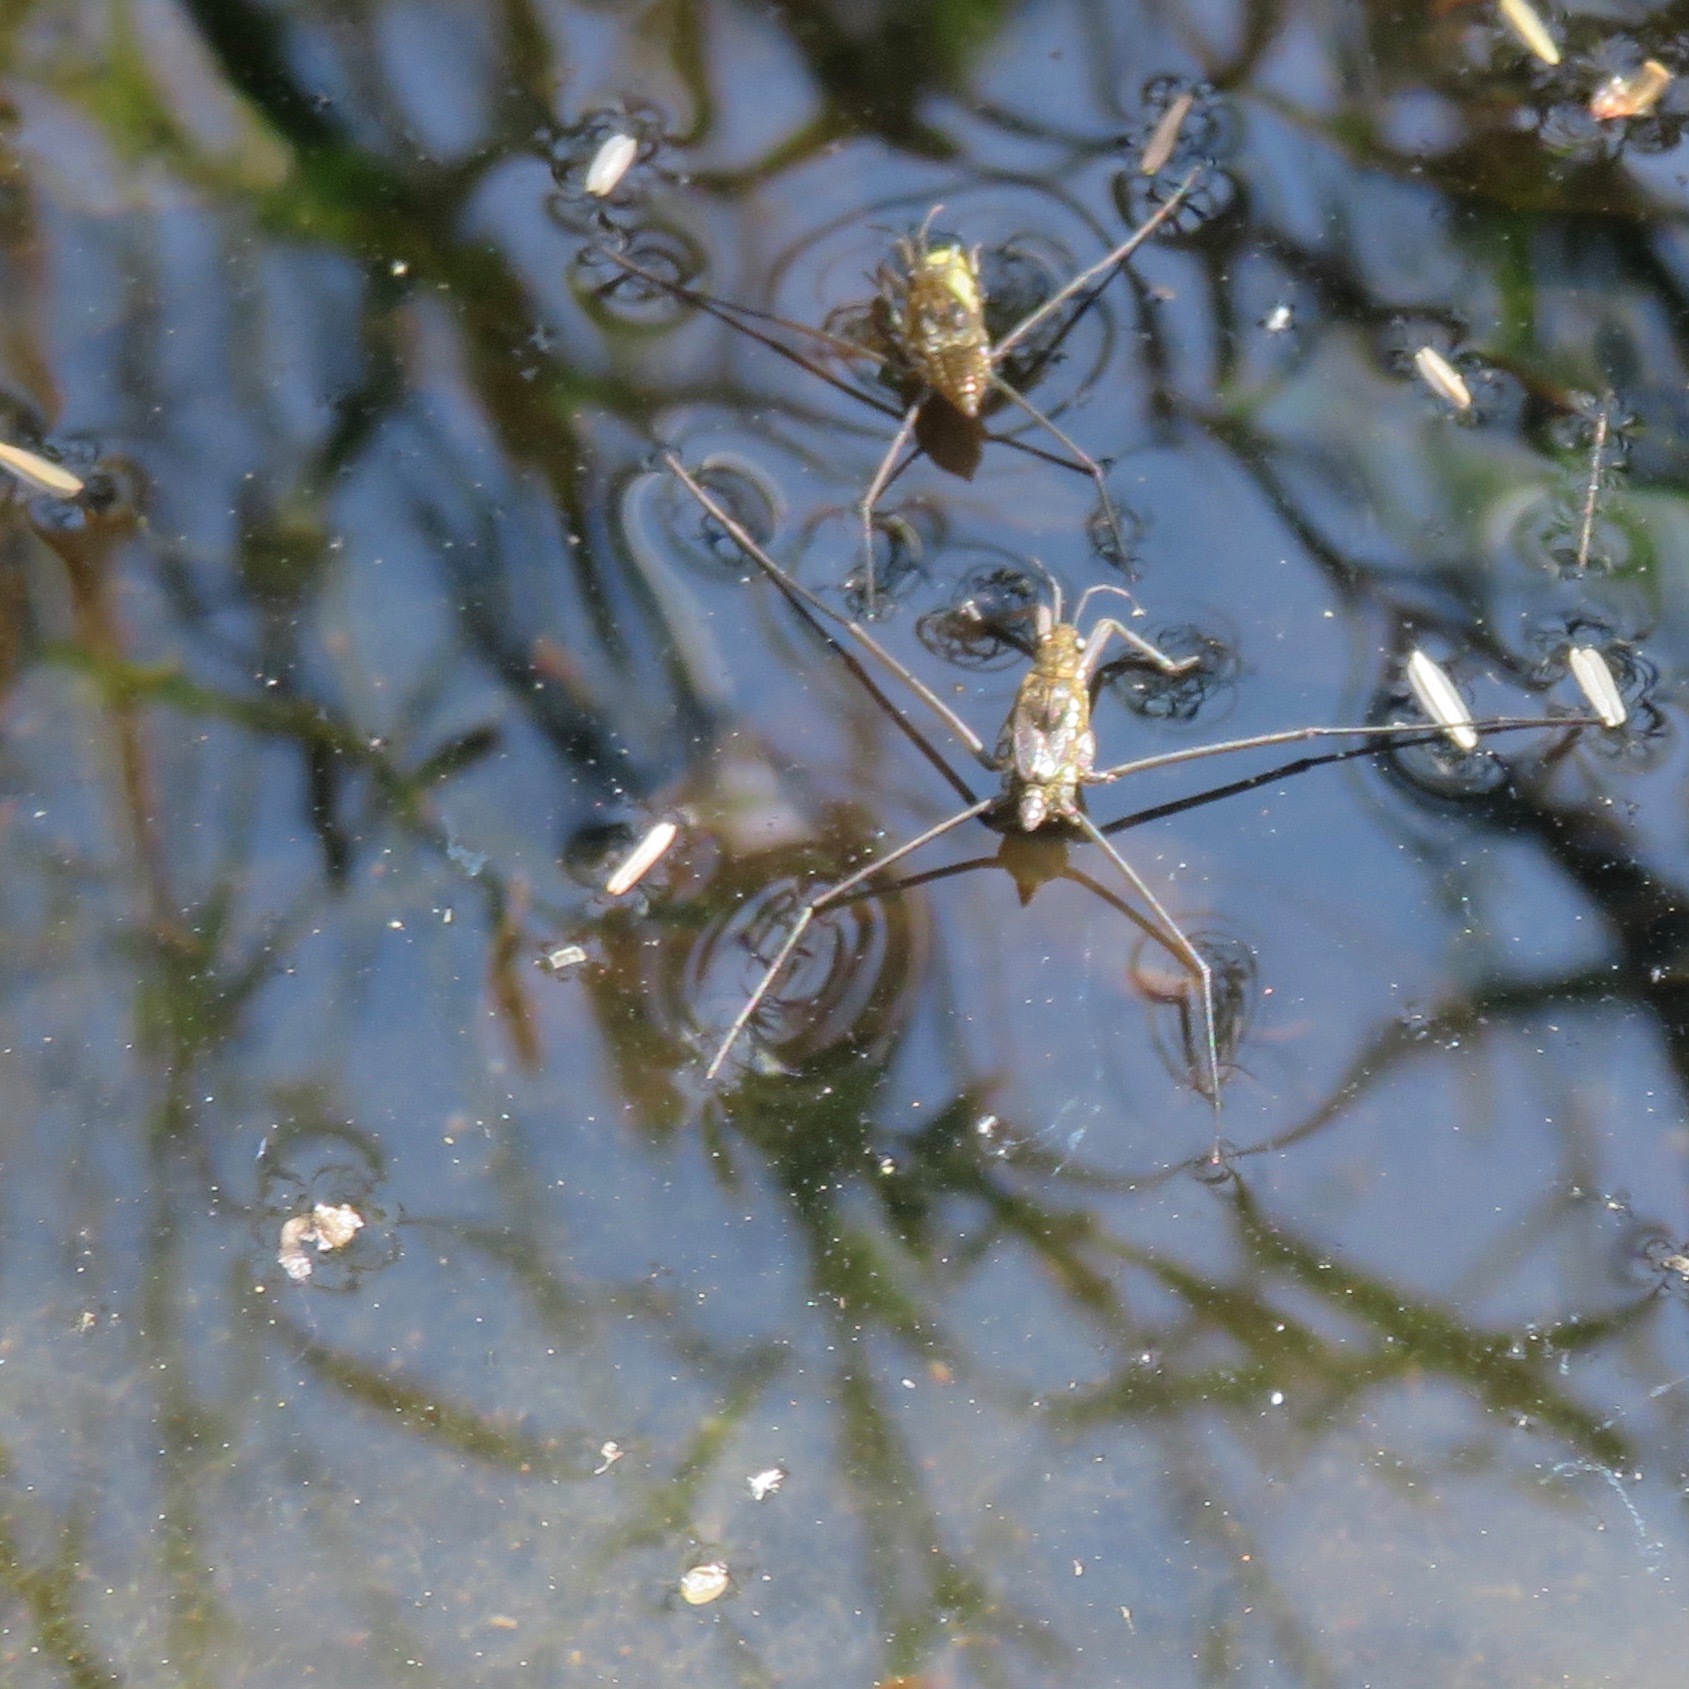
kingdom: Animalia
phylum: Arthropoda
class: Insecta
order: Hemiptera
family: Gerridae
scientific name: Gerridae
